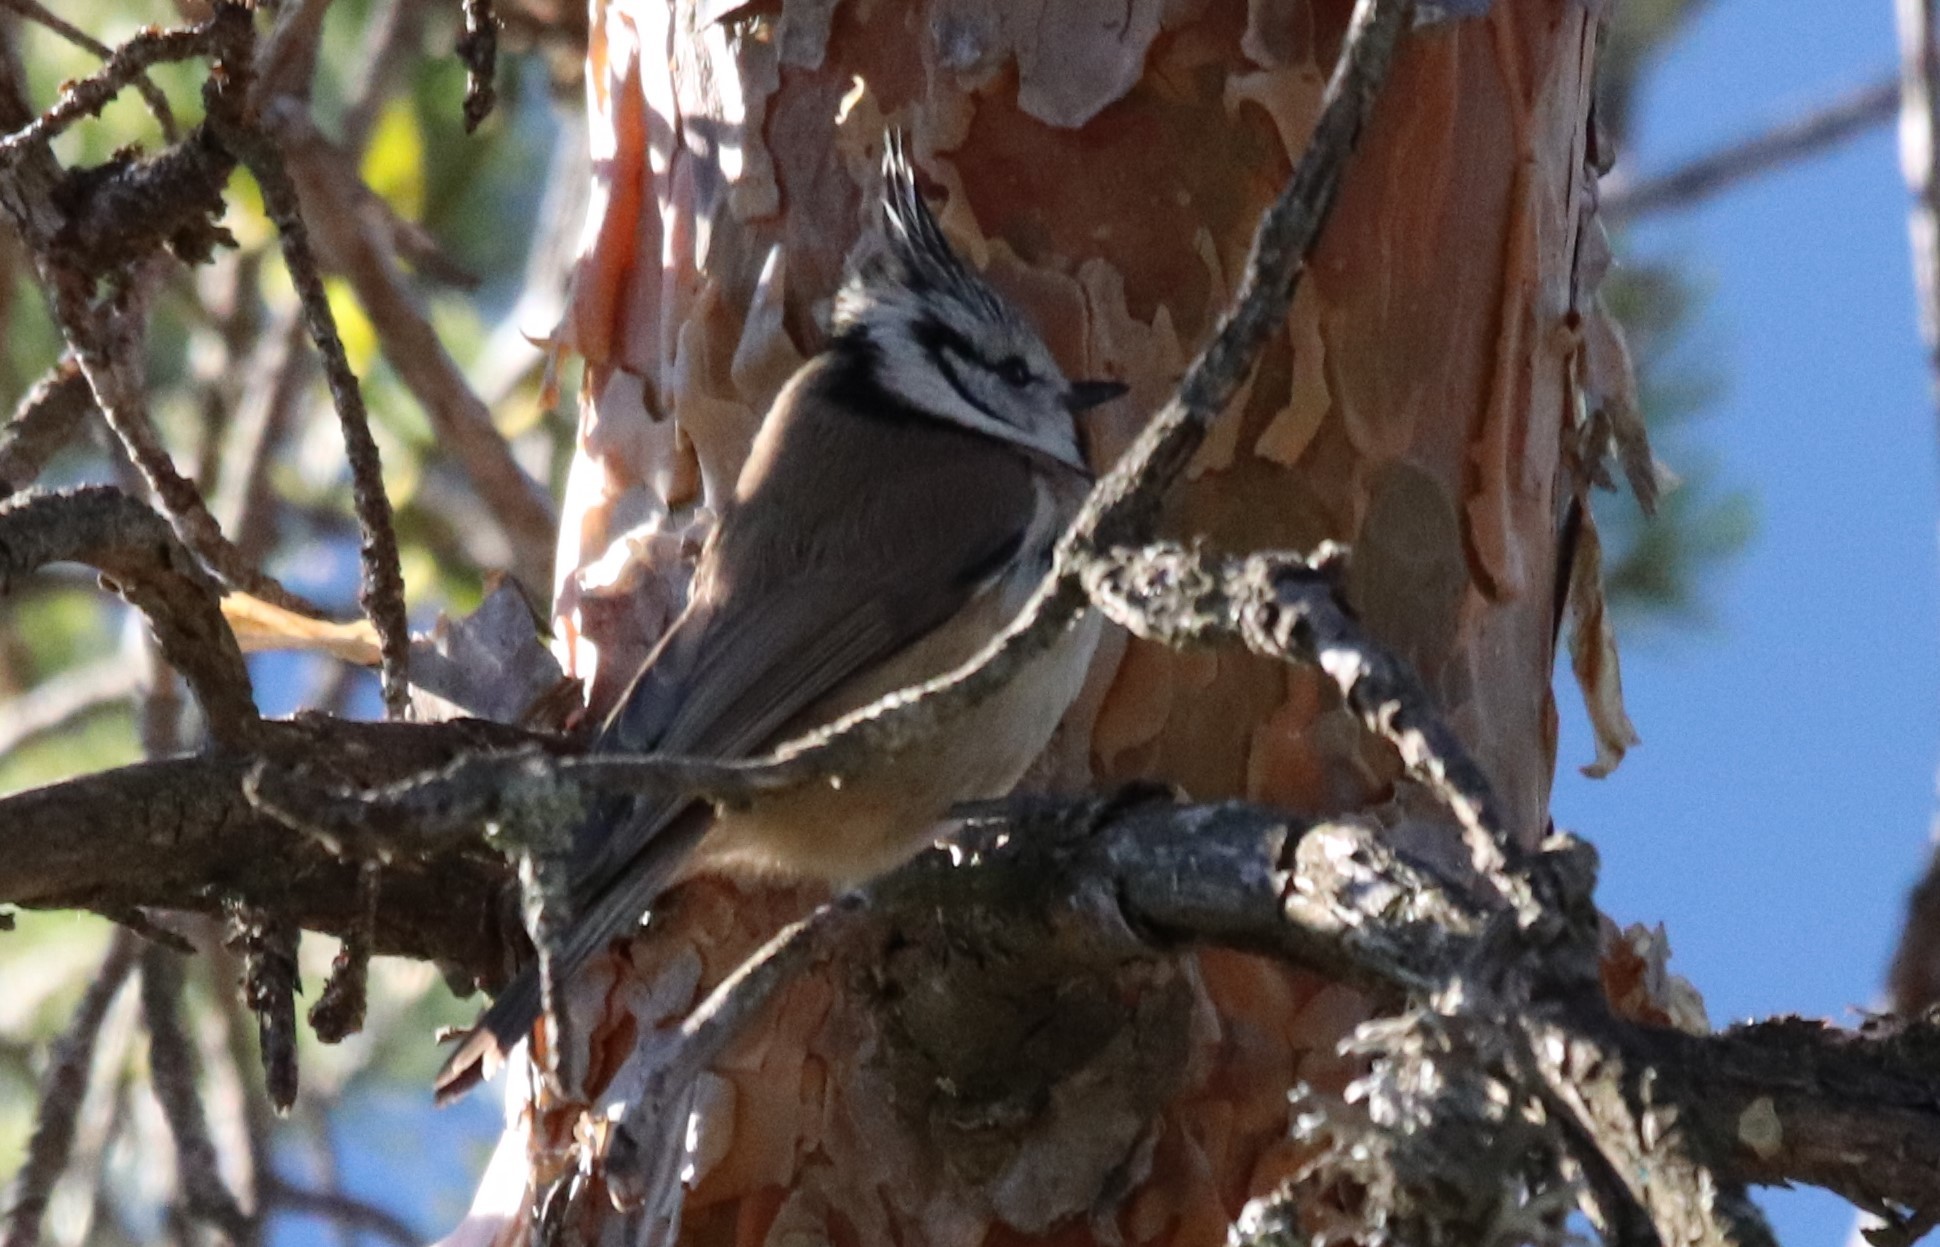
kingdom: Animalia
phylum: Chordata
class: Aves
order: Passeriformes
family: Paridae
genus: Lophophanes
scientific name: Lophophanes cristatus
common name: European crested tit
